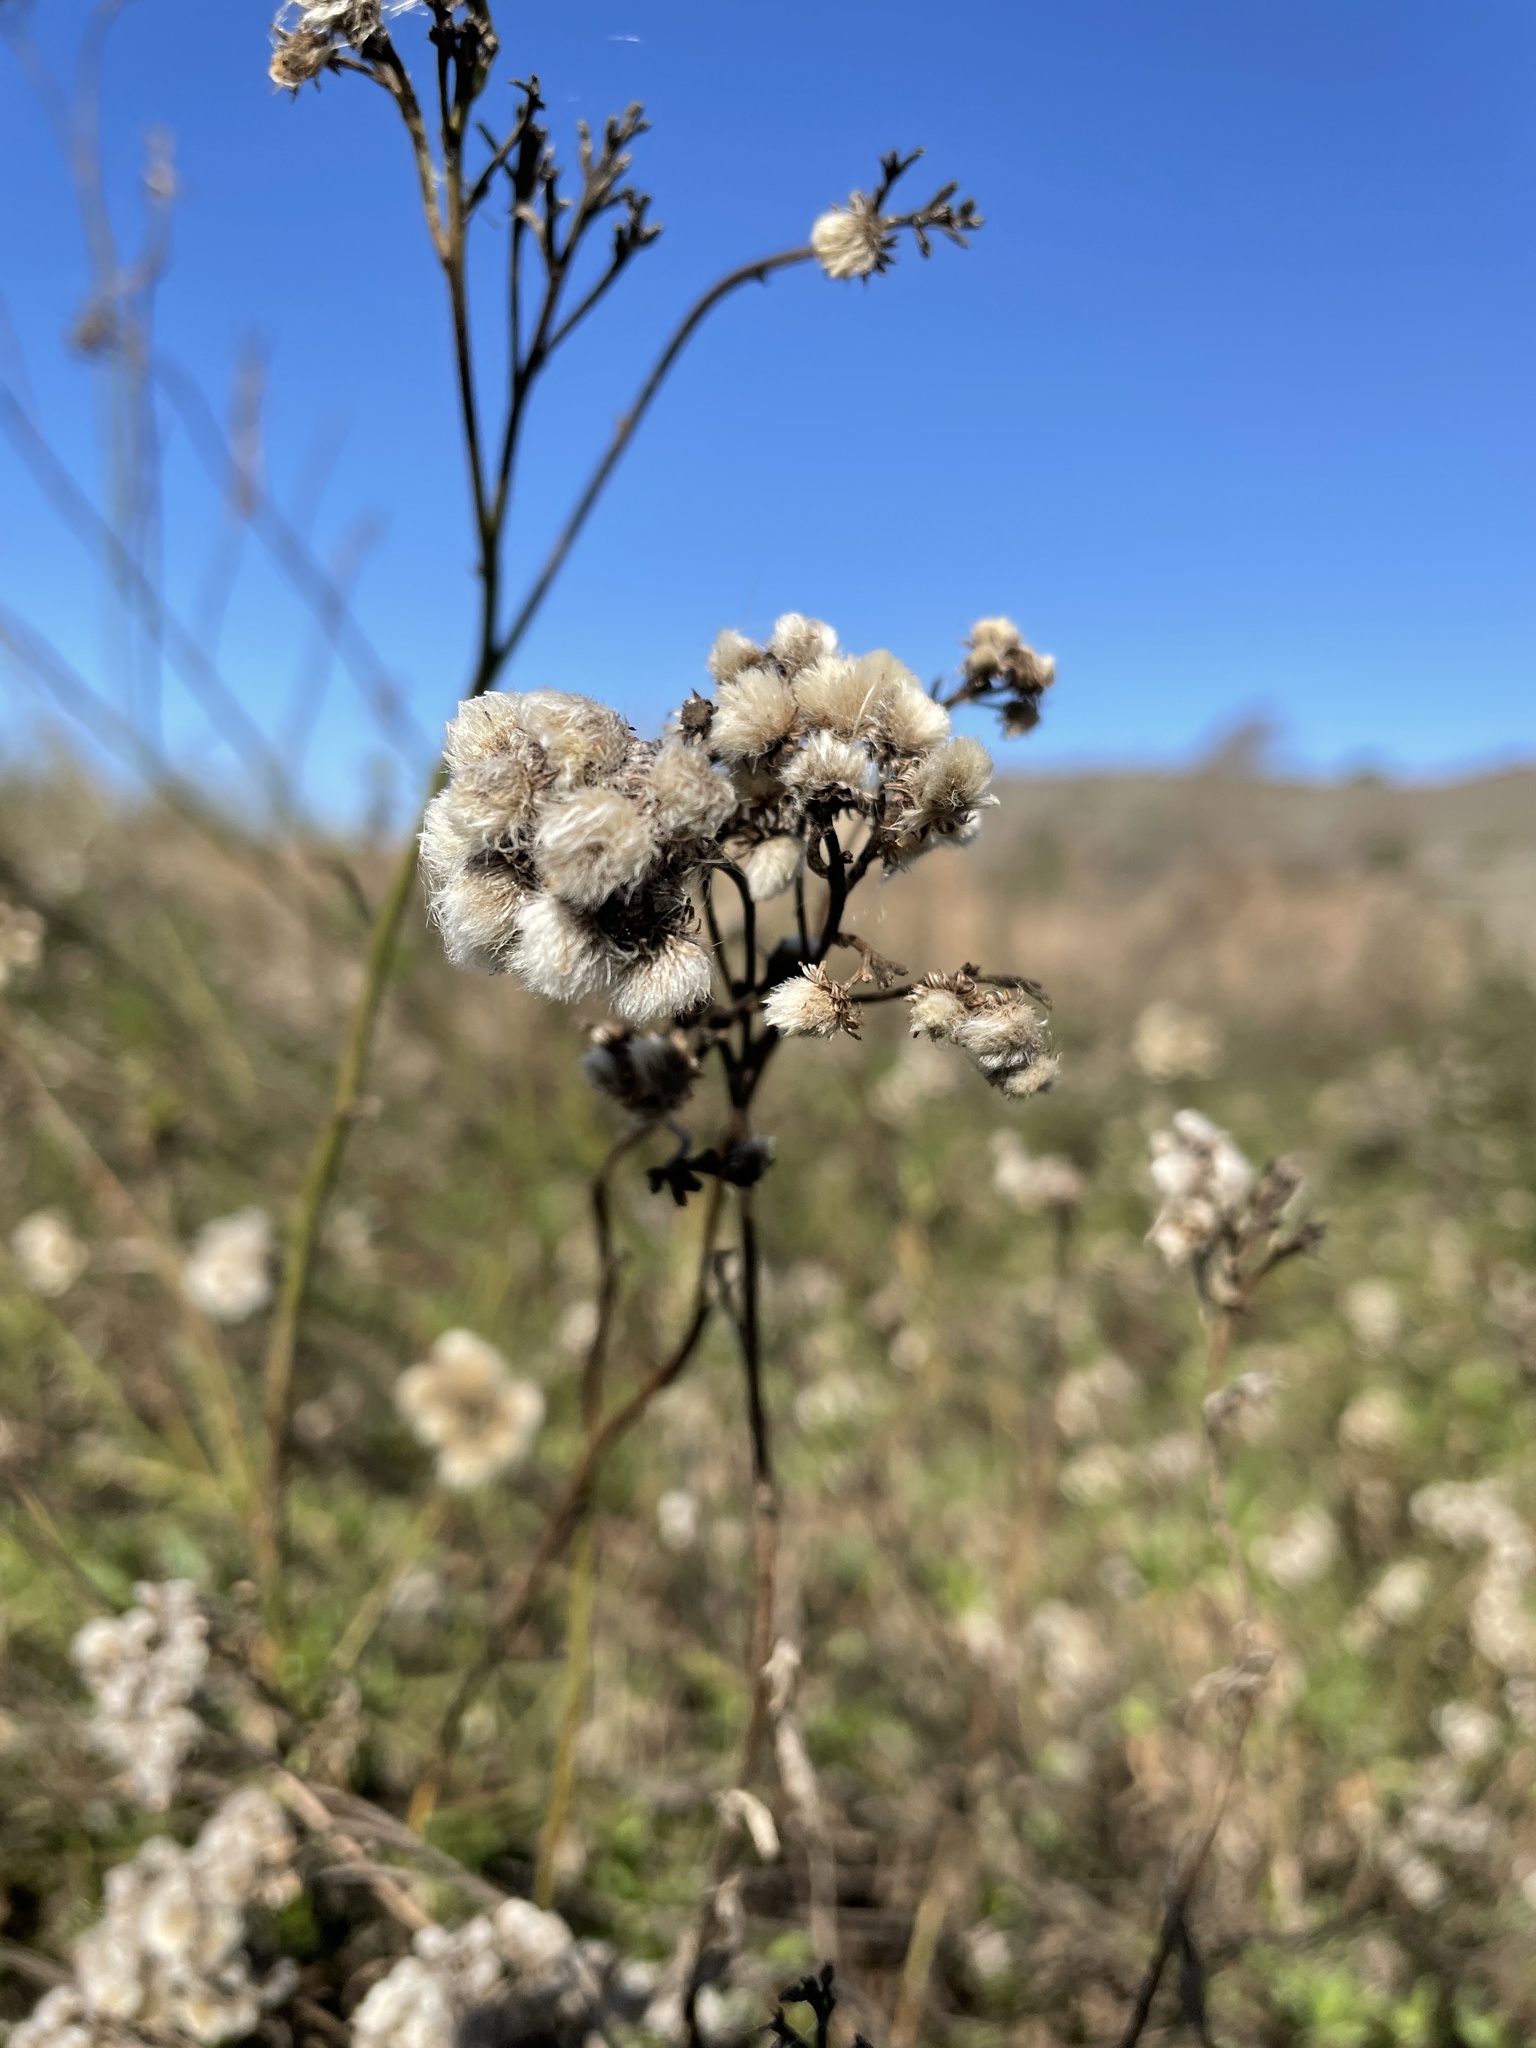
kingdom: Plantae
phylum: Tracheophyta
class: Magnoliopsida
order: Asterales
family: Asteraceae
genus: Baccharis
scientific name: Baccharis glutinosa
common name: Saltmarsh baccharis
